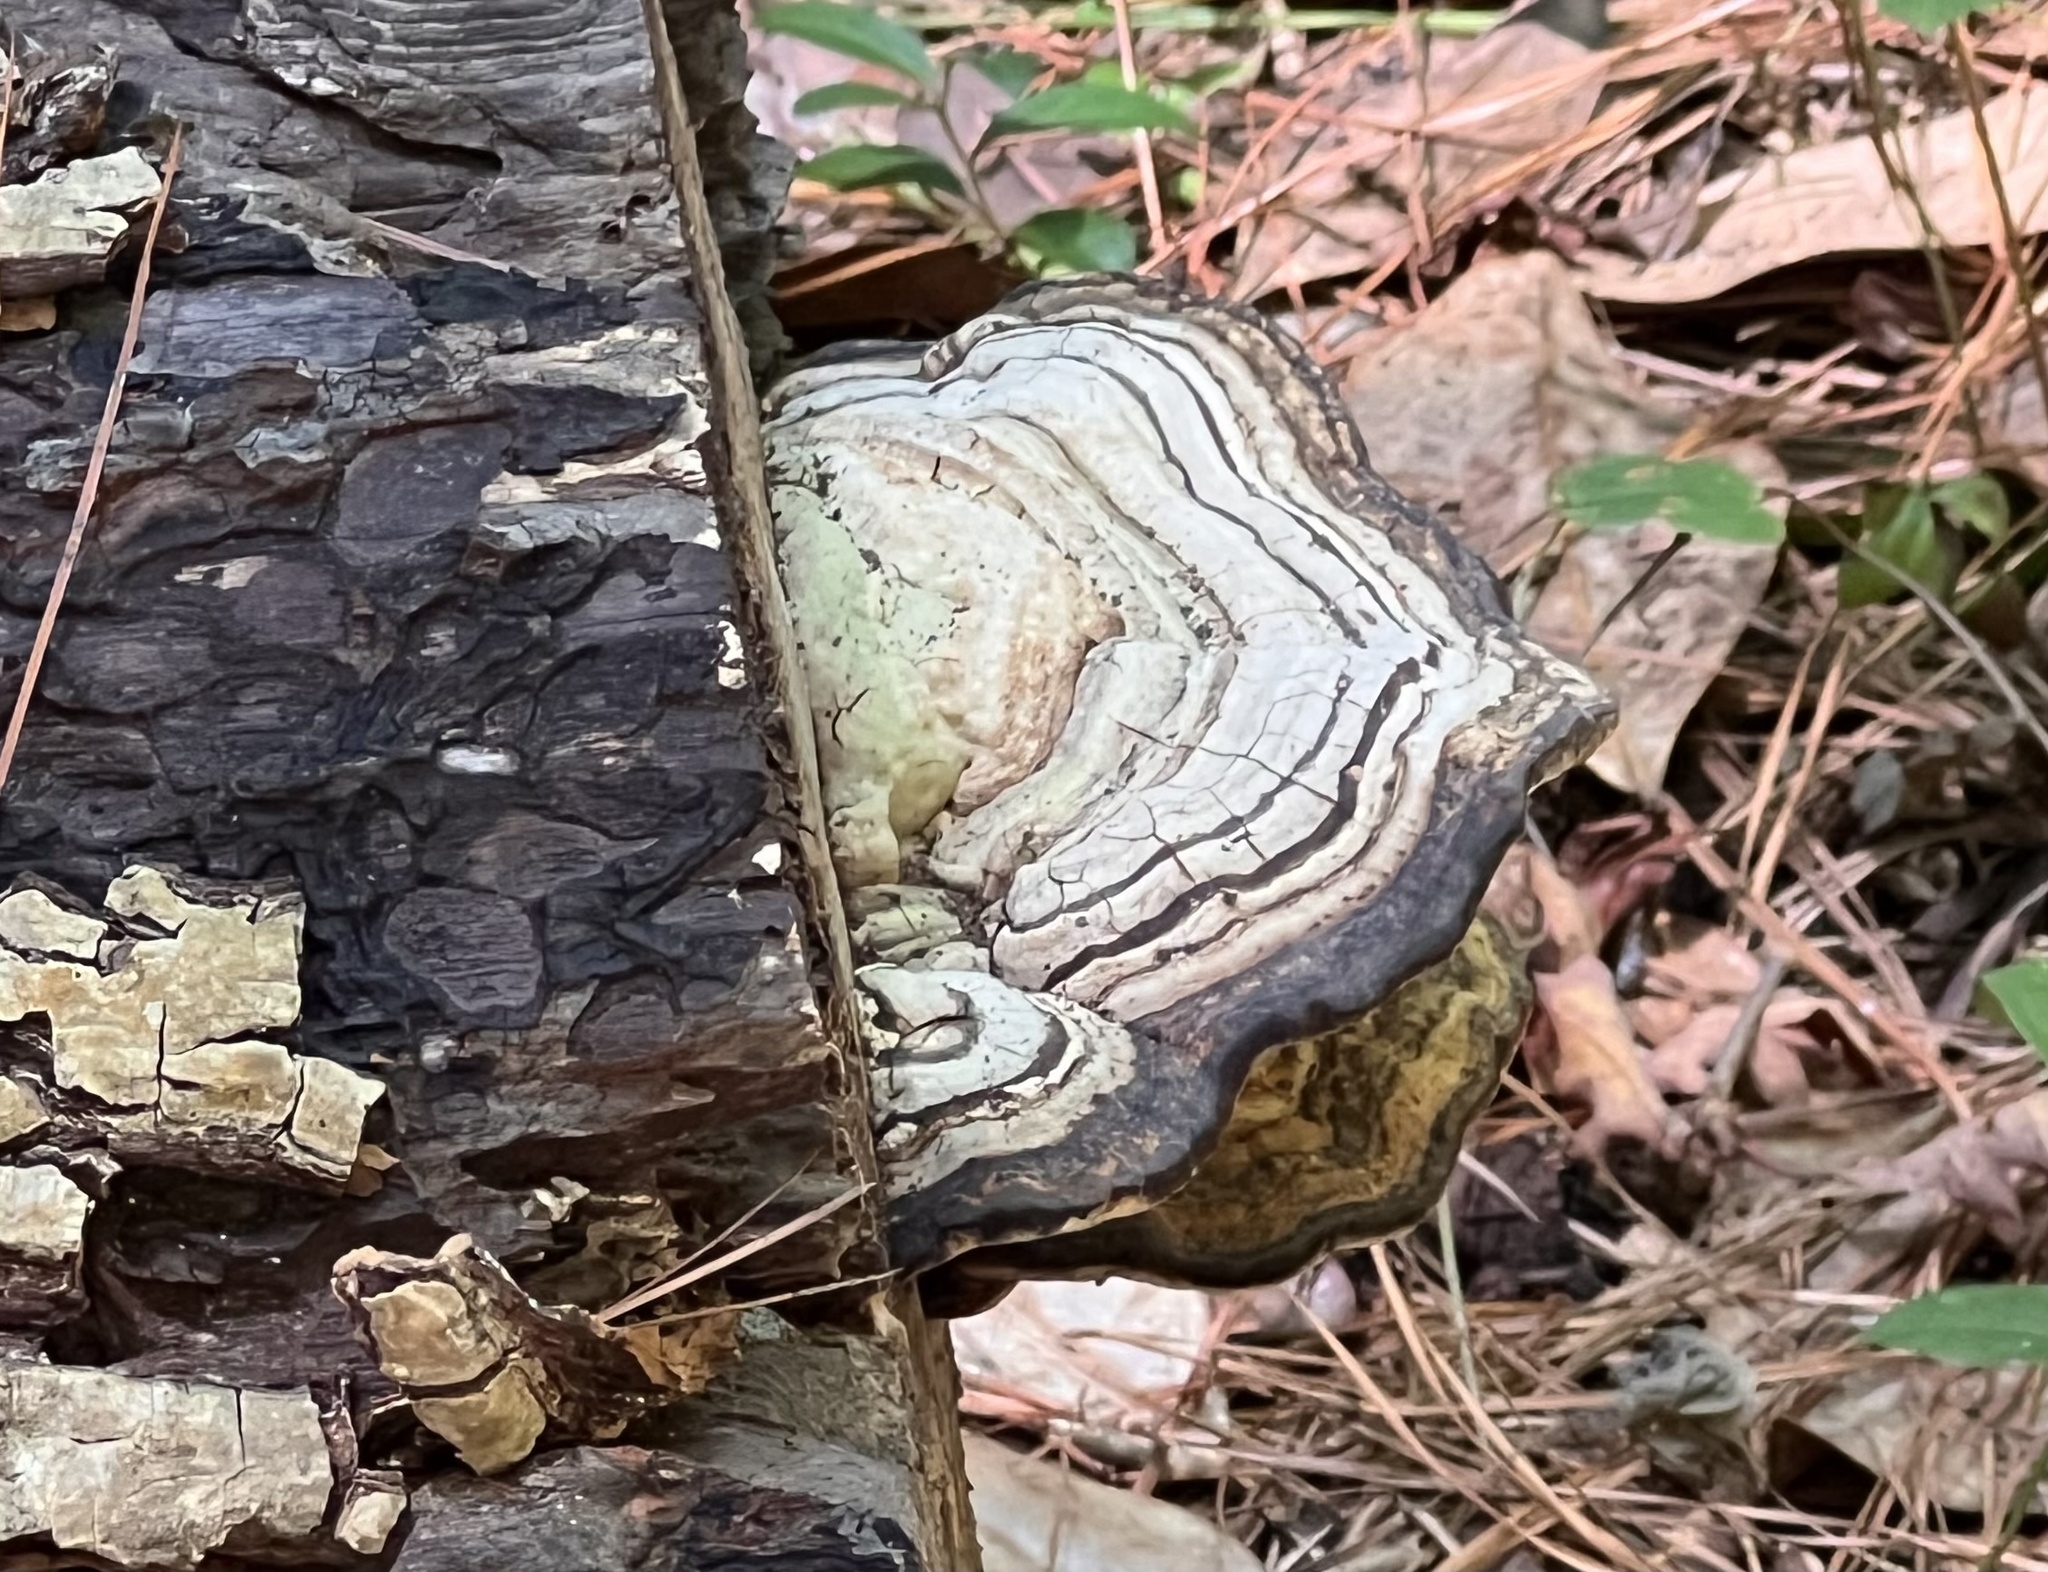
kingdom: Fungi
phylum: Basidiomycota
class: Agaricomycetes
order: Polyporales
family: Polyporaceae
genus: Fomes
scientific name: Fomes fasciatus
